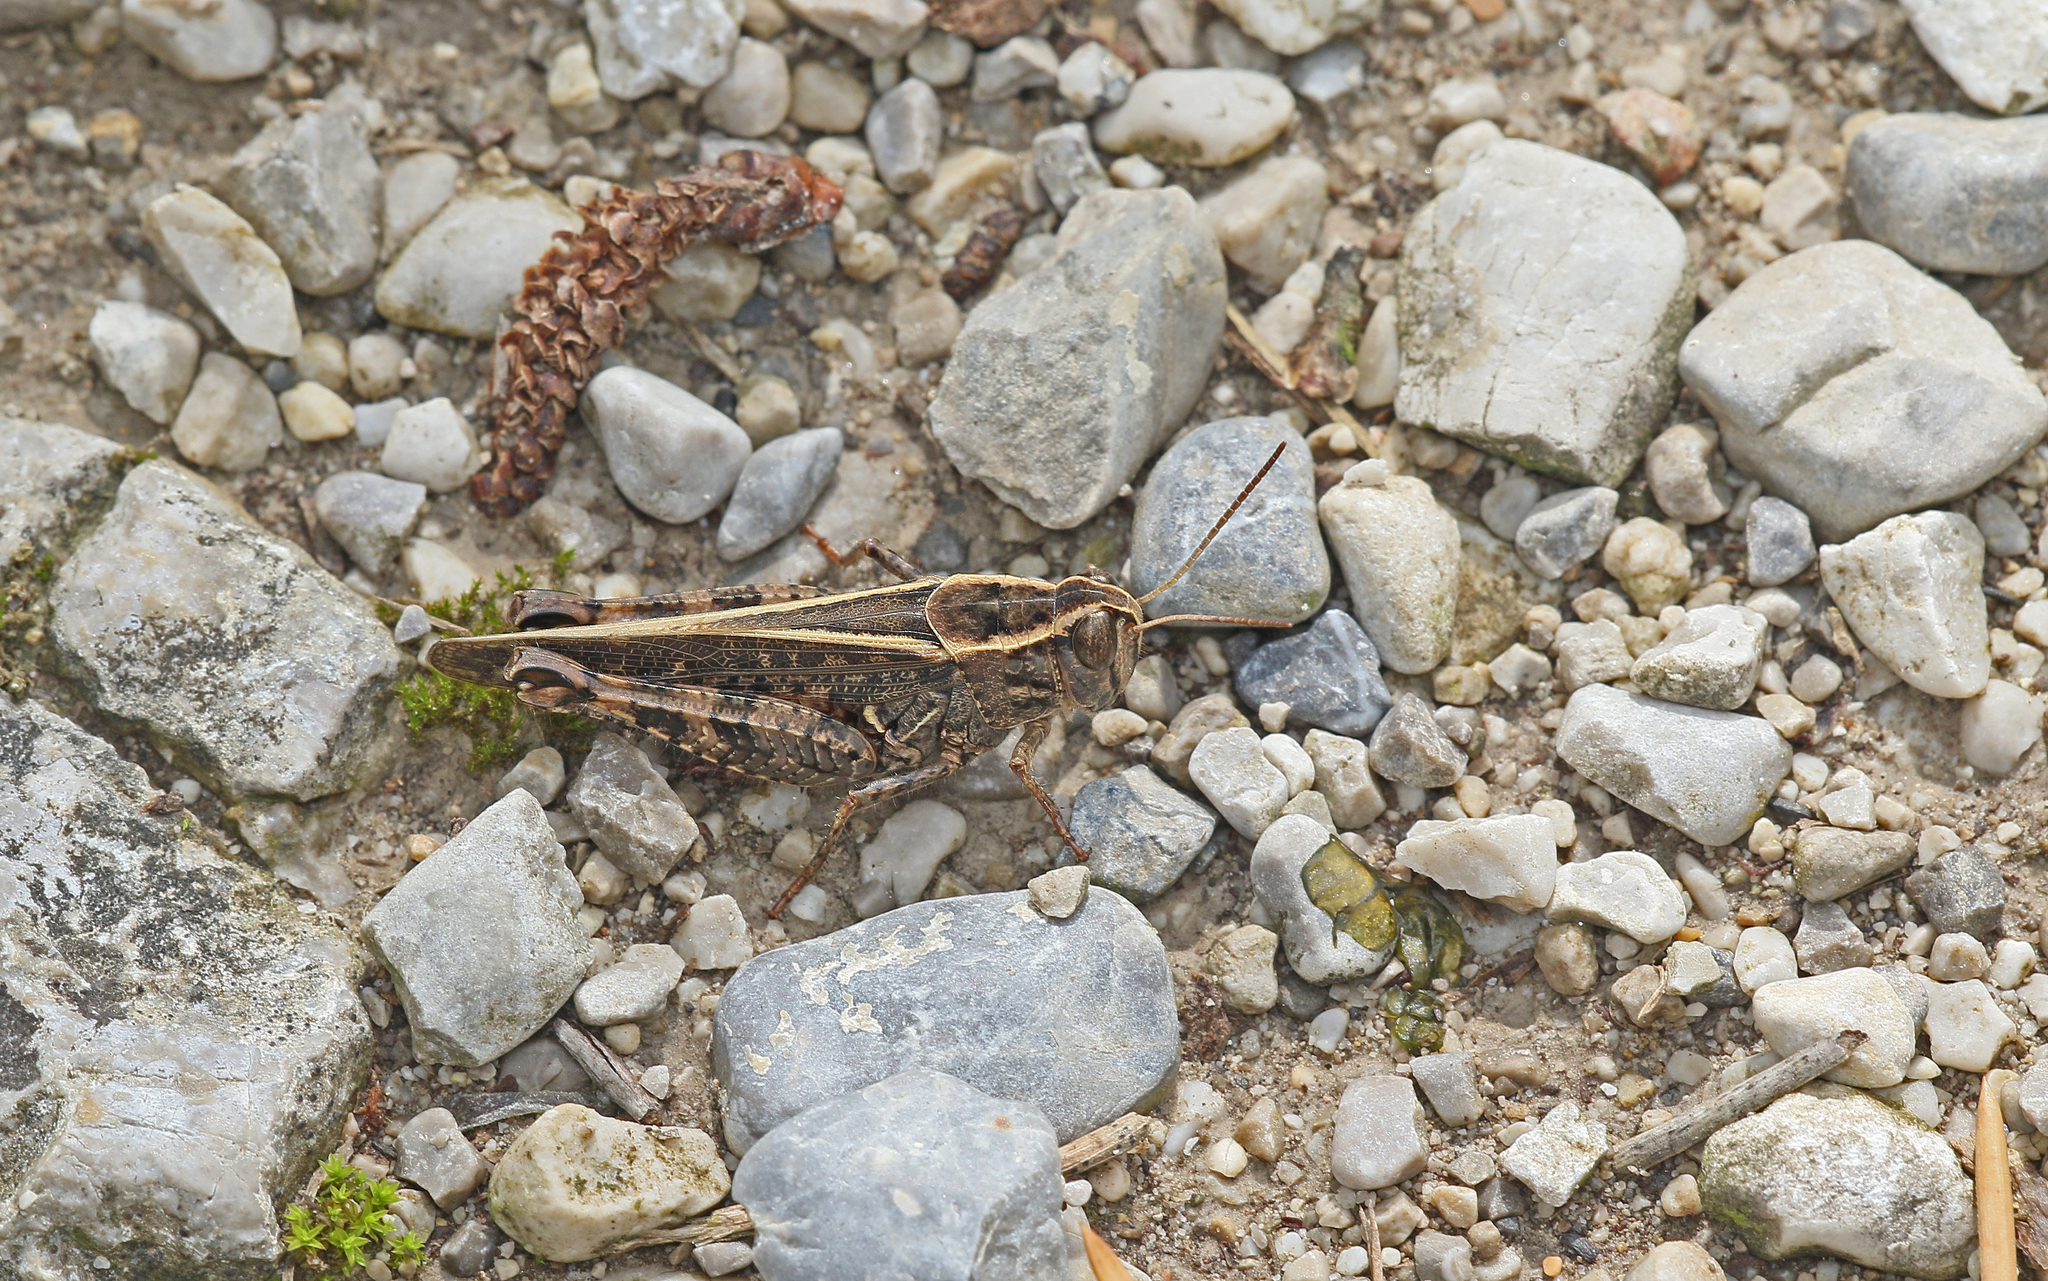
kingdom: Animalia
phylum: Arthropoda
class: Insecta
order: Orthoptera
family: Acrididae
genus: Calliptamus
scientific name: Calliptamus italicus
